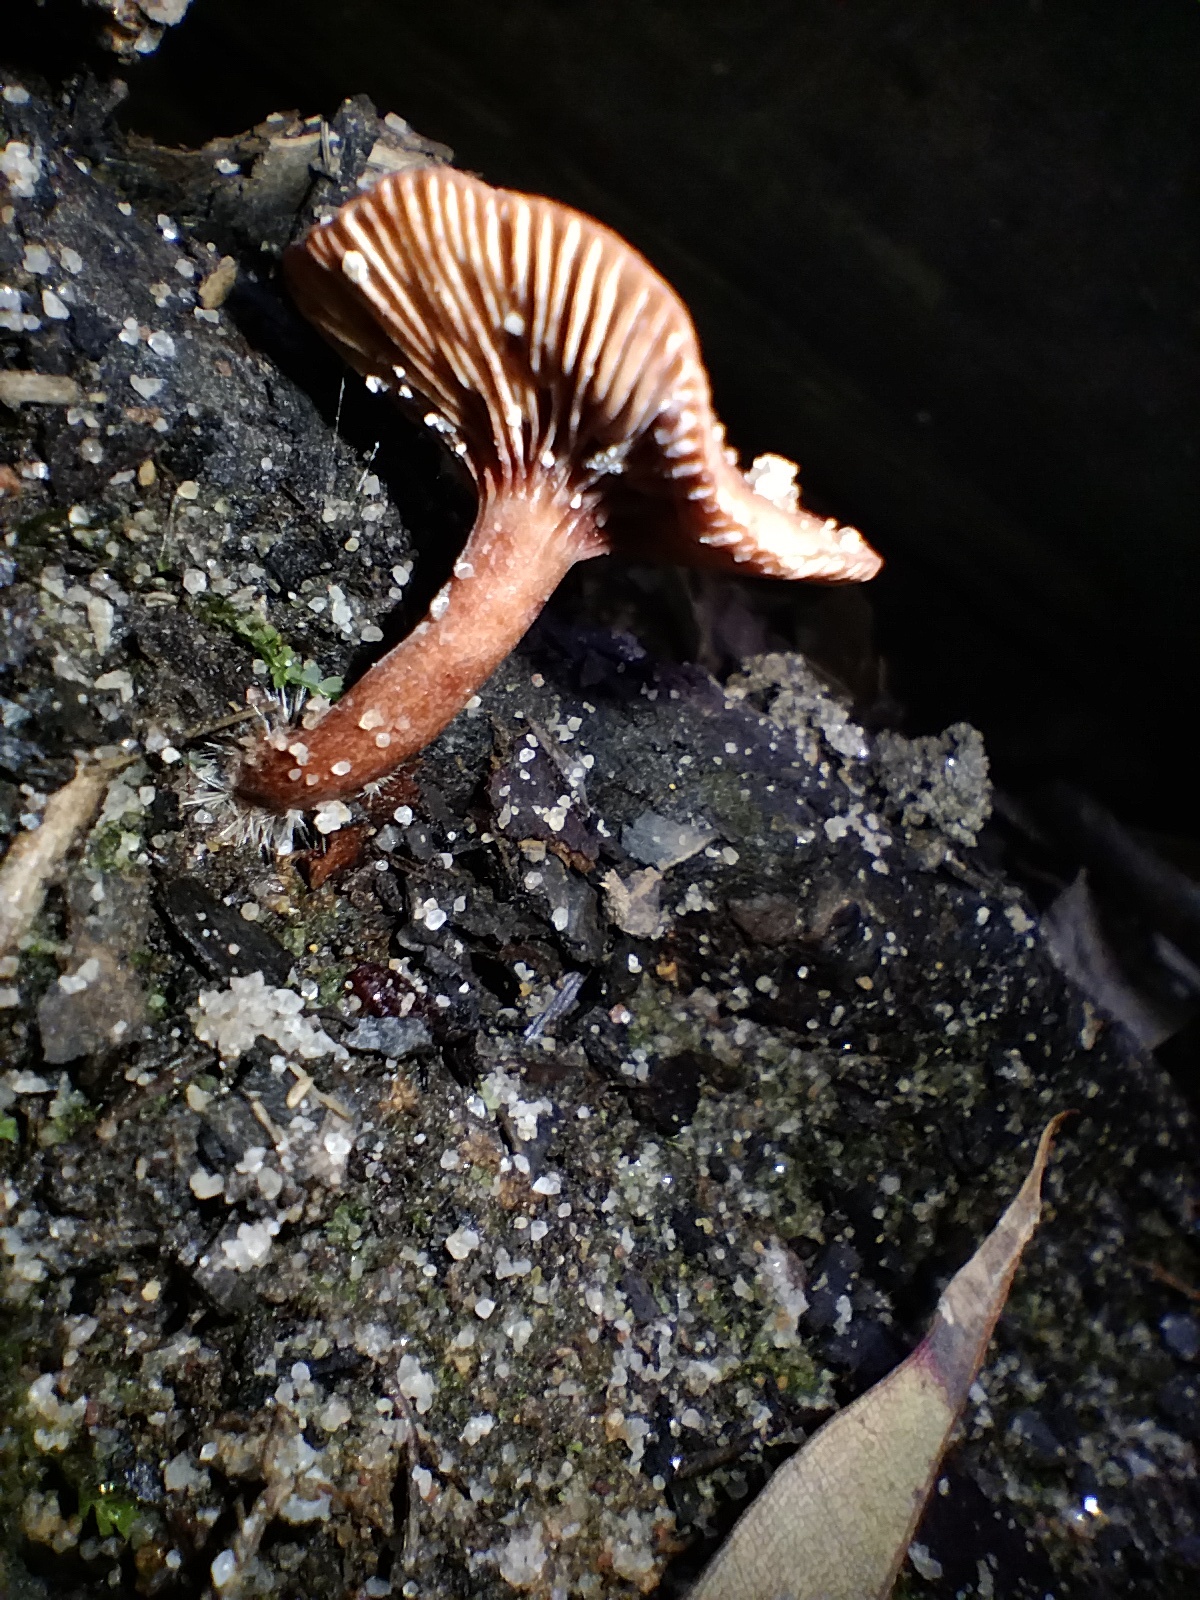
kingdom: Fungi
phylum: Basidiomycota
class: Agaricomycetes
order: Russulales
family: Russulaceae
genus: Lactarius
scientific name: Lactarius eucalypti
